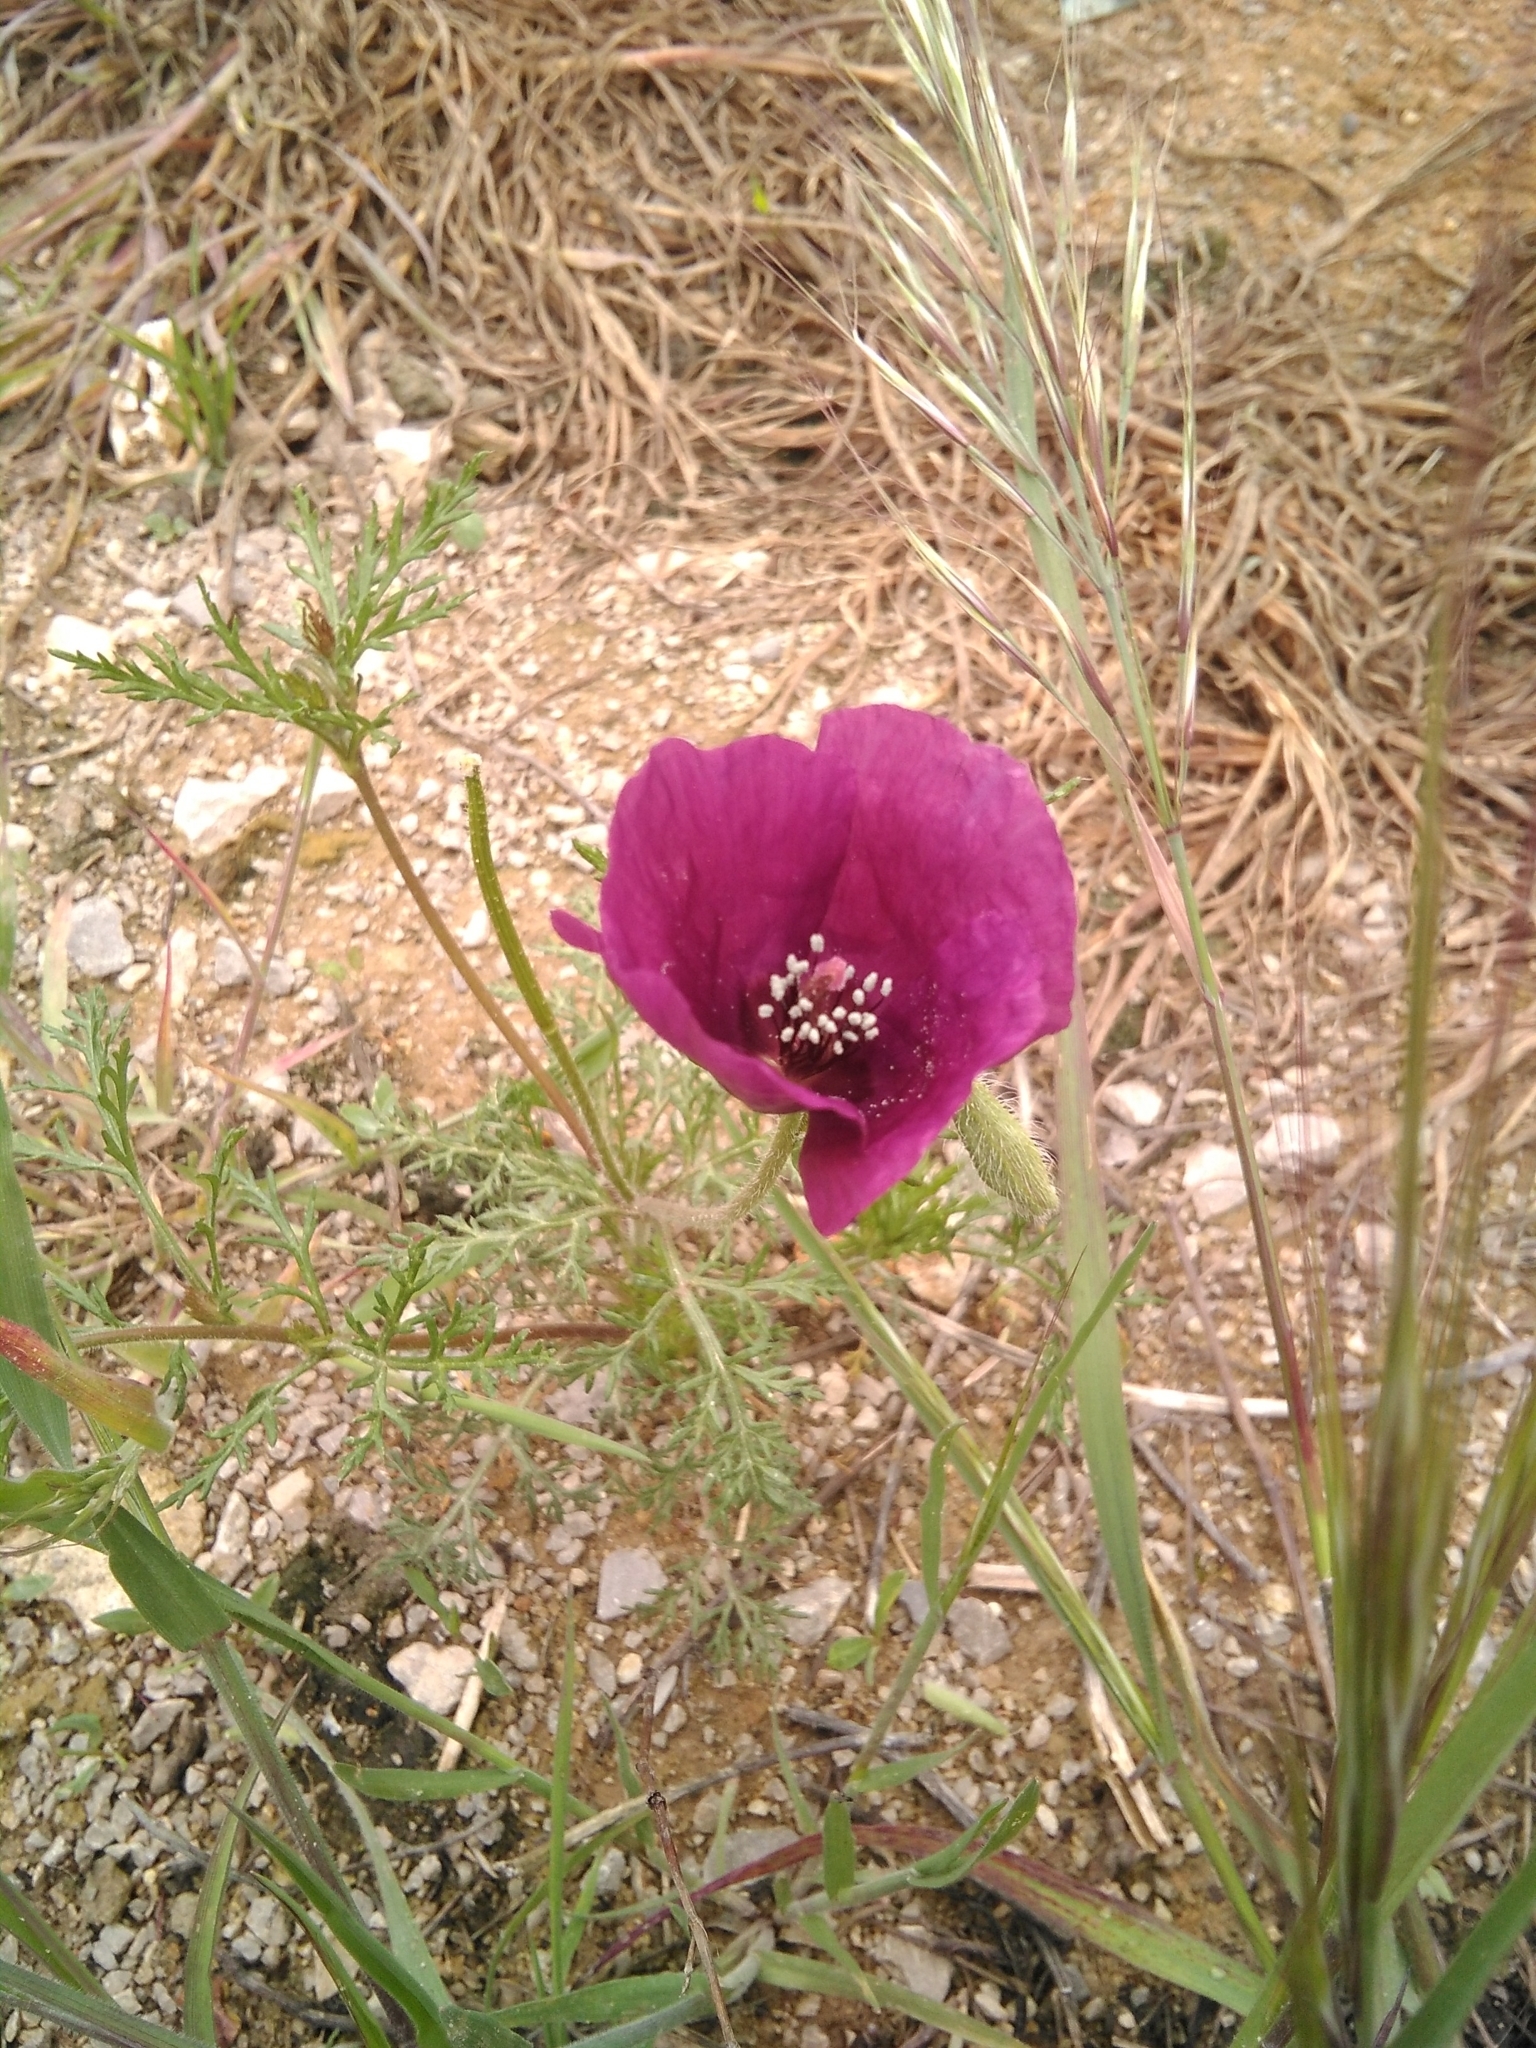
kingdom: Plantae
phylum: Tracheophyta
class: Magnoliopsida
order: Ranunculales
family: Papaveraceae
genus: Roemeria
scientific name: Roemeria hybrida
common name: Violet horned-poppy
